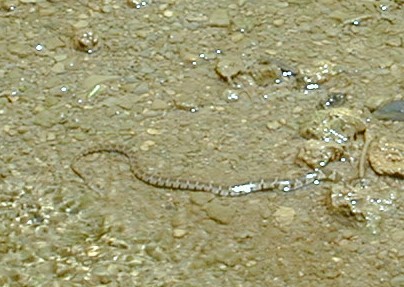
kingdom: Animalia
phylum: Chordata
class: Squamata
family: Colubridae
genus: Nerodia
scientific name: Nerodia sipedon
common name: Northern water snake
